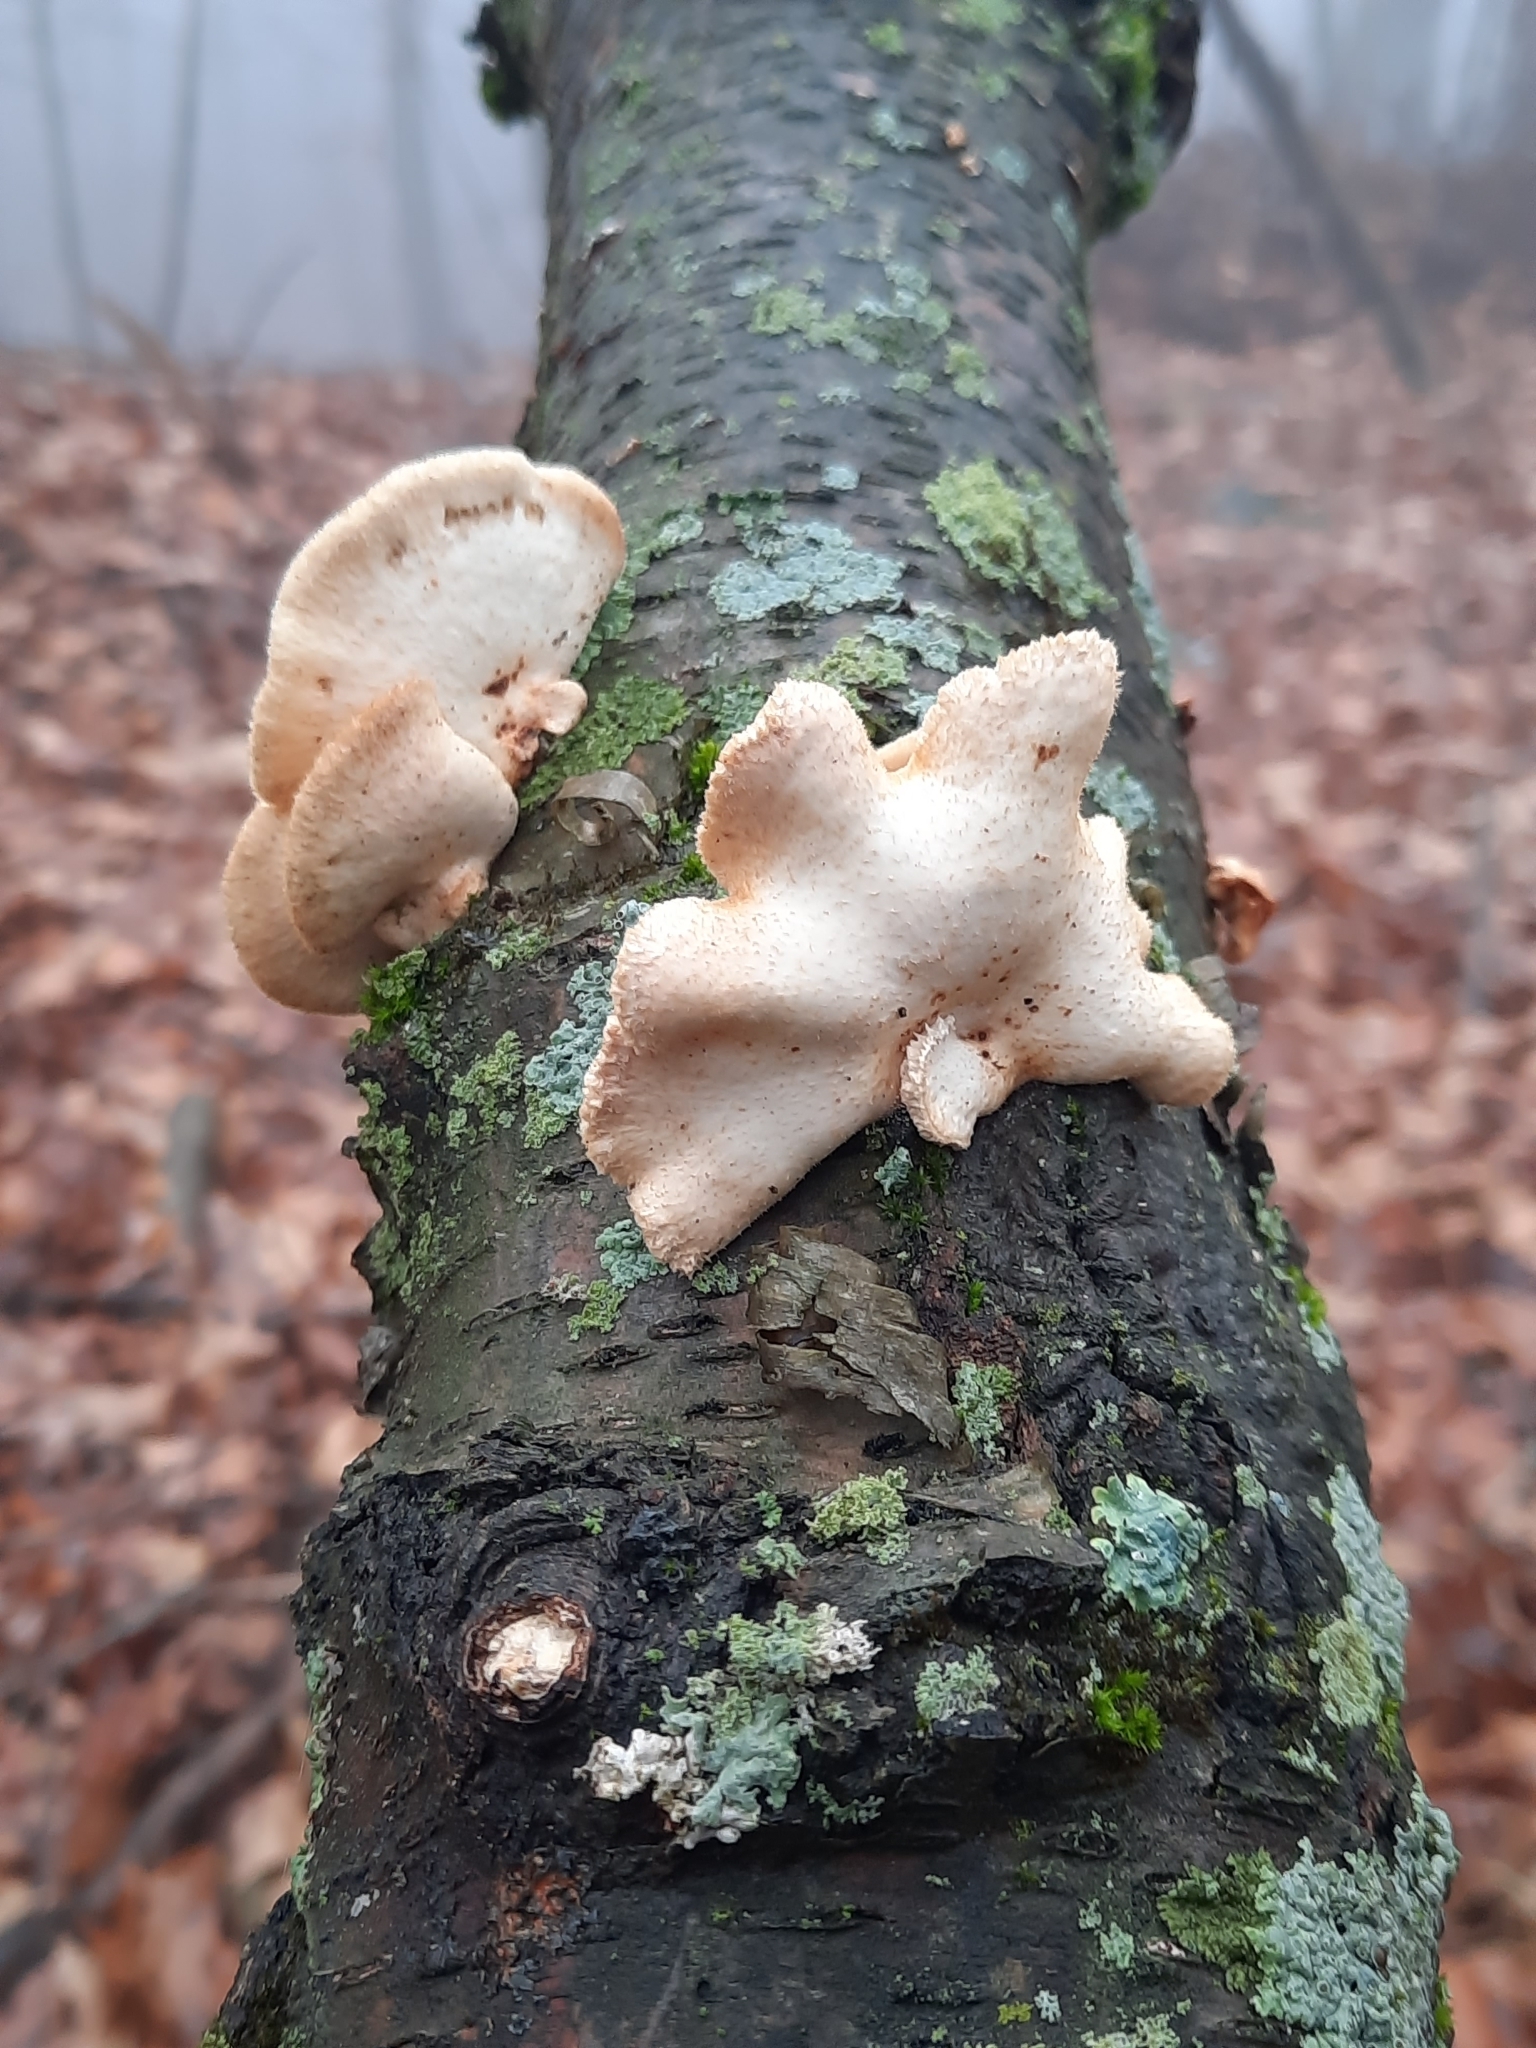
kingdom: Fungi
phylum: Basidiomycota
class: Agaricomycetes
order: Polyporales
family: Polyporaceae
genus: Neofavolus
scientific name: Neofavolus alveolaris
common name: Hexagonal-pored polypore
